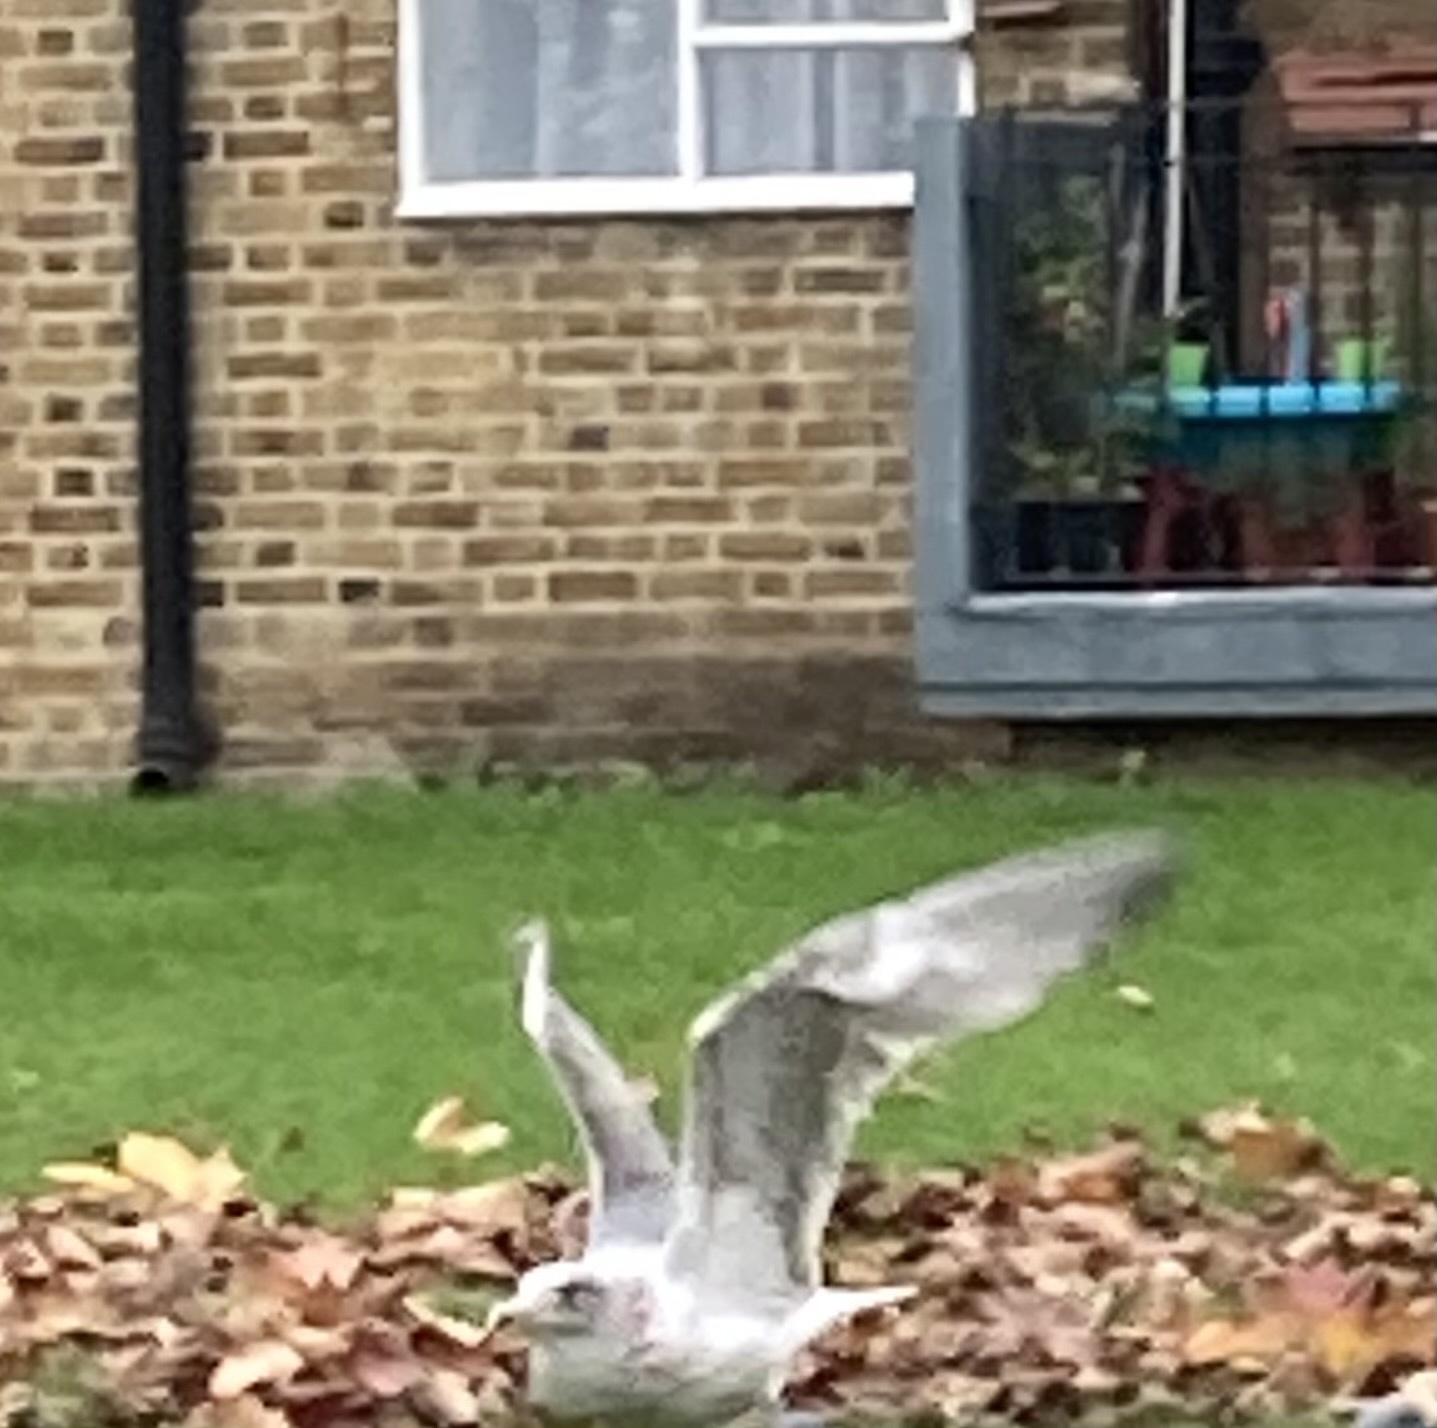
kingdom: Animalia
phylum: Chordata
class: Aves
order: Charadriiformes
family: Laridae
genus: Larus
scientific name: Larus argentatus
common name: Herring gull
